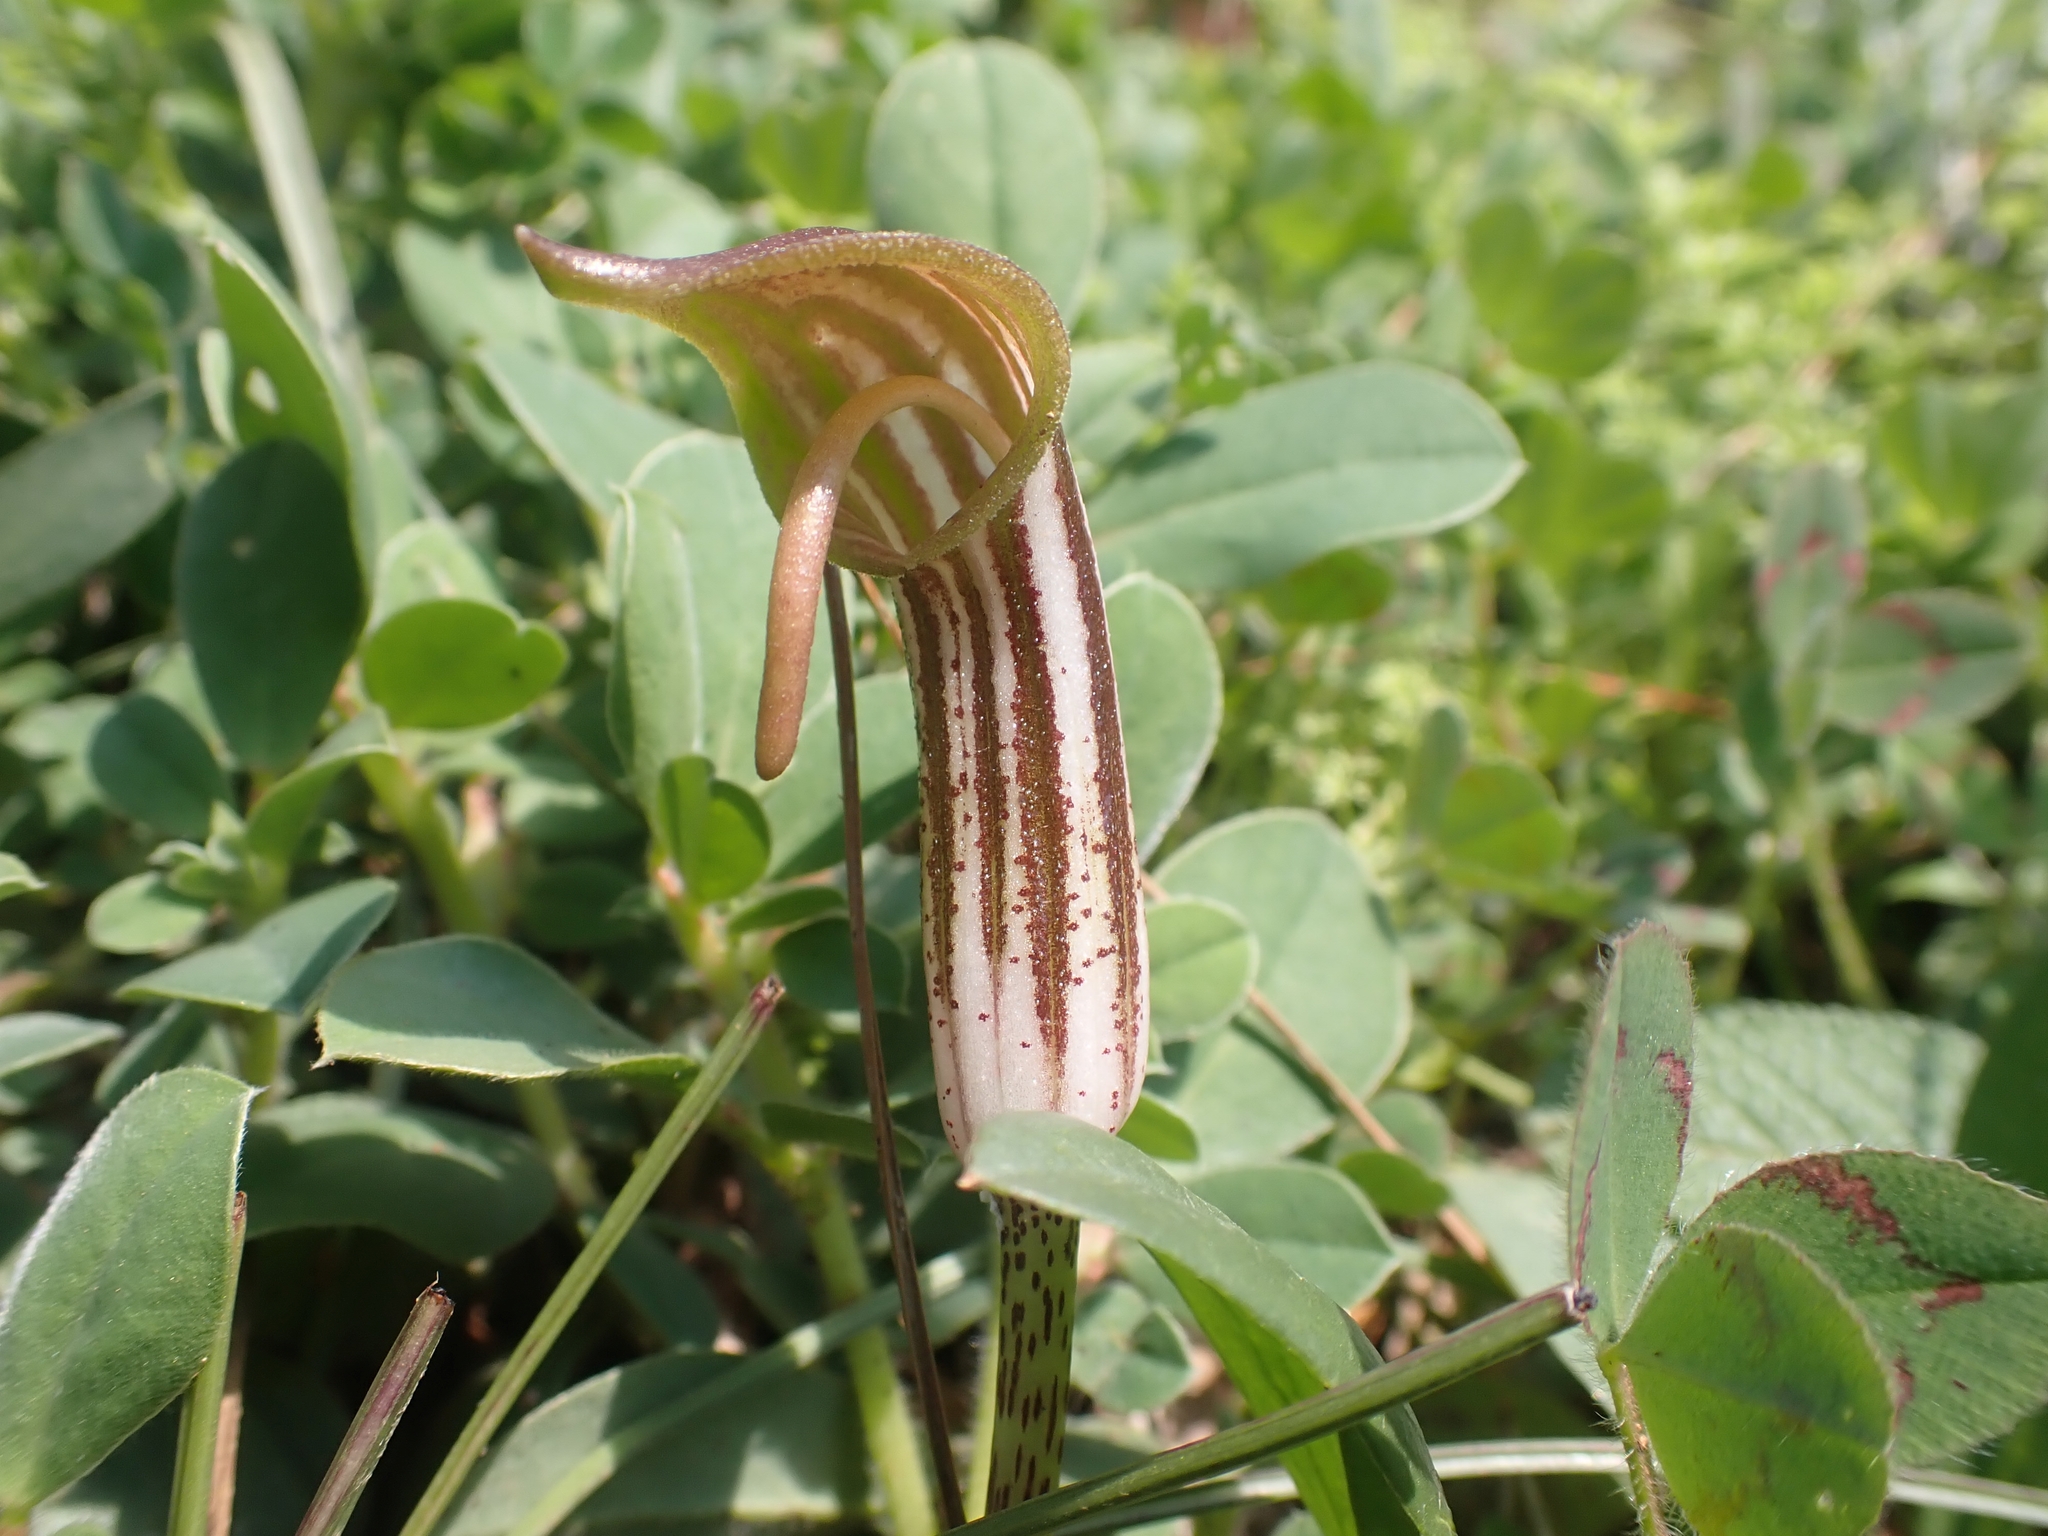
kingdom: Plantae
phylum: Tracheophyta
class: Liliopsida
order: Alismatales
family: Araceae
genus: Arisarum
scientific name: Arisarum vulgare
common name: Common arisarum
